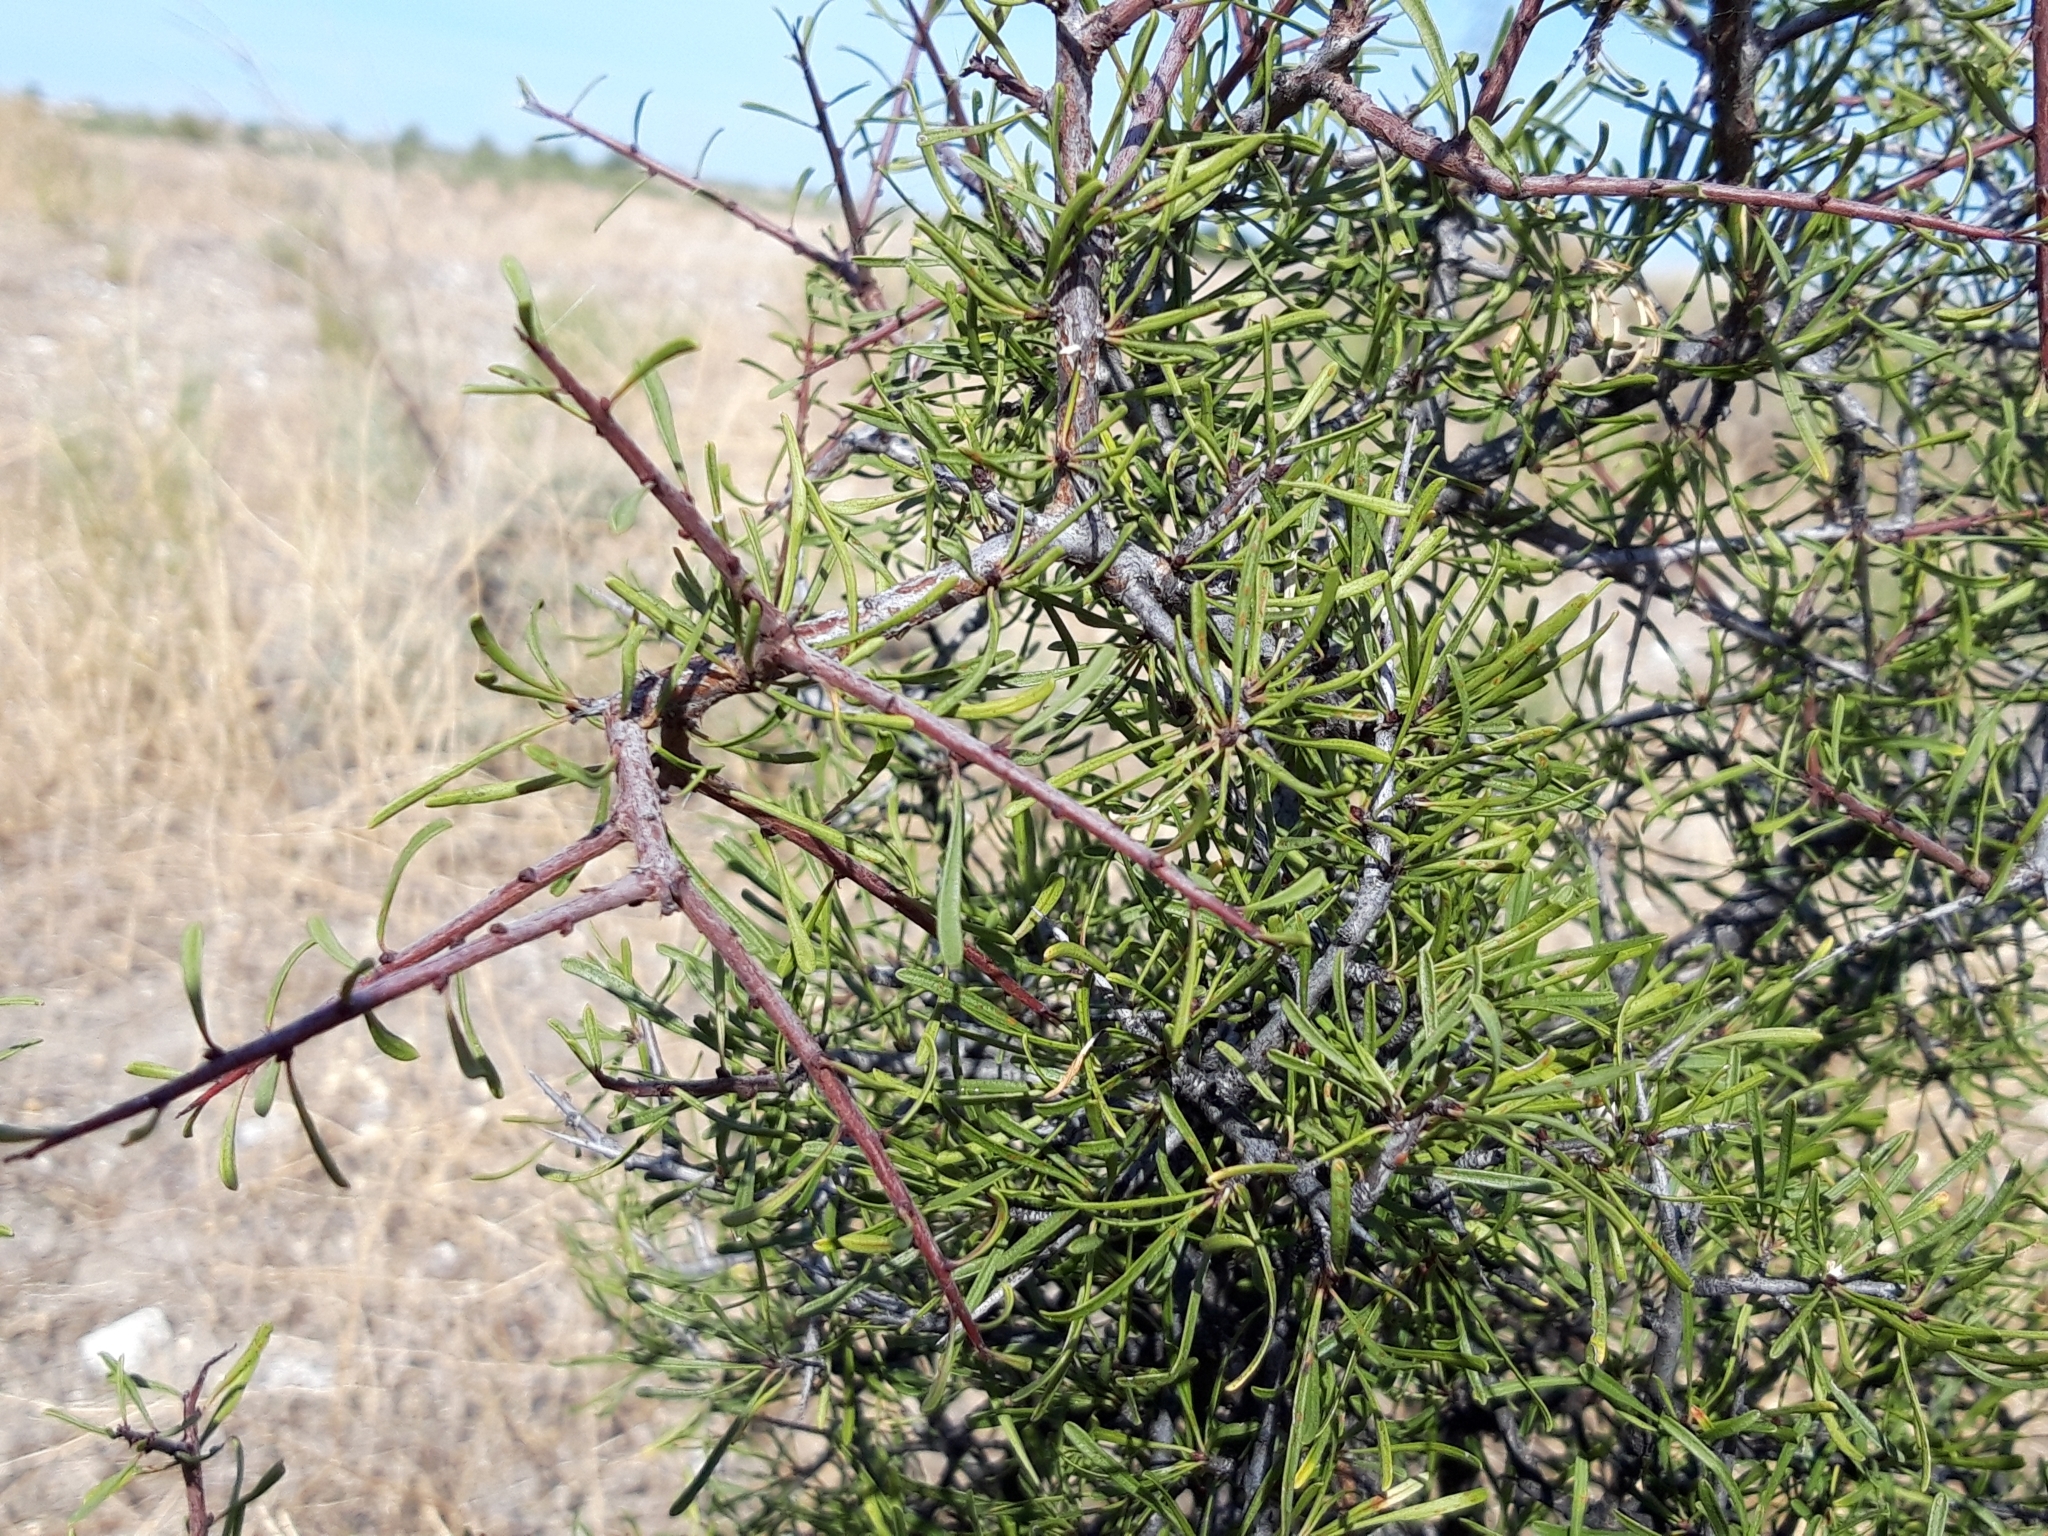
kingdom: Plantae
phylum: Tracheophyta
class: Magnoliopsida
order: Rosales
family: Rhamnaceae
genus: Rhamnus
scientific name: Rhamnus lycioides
